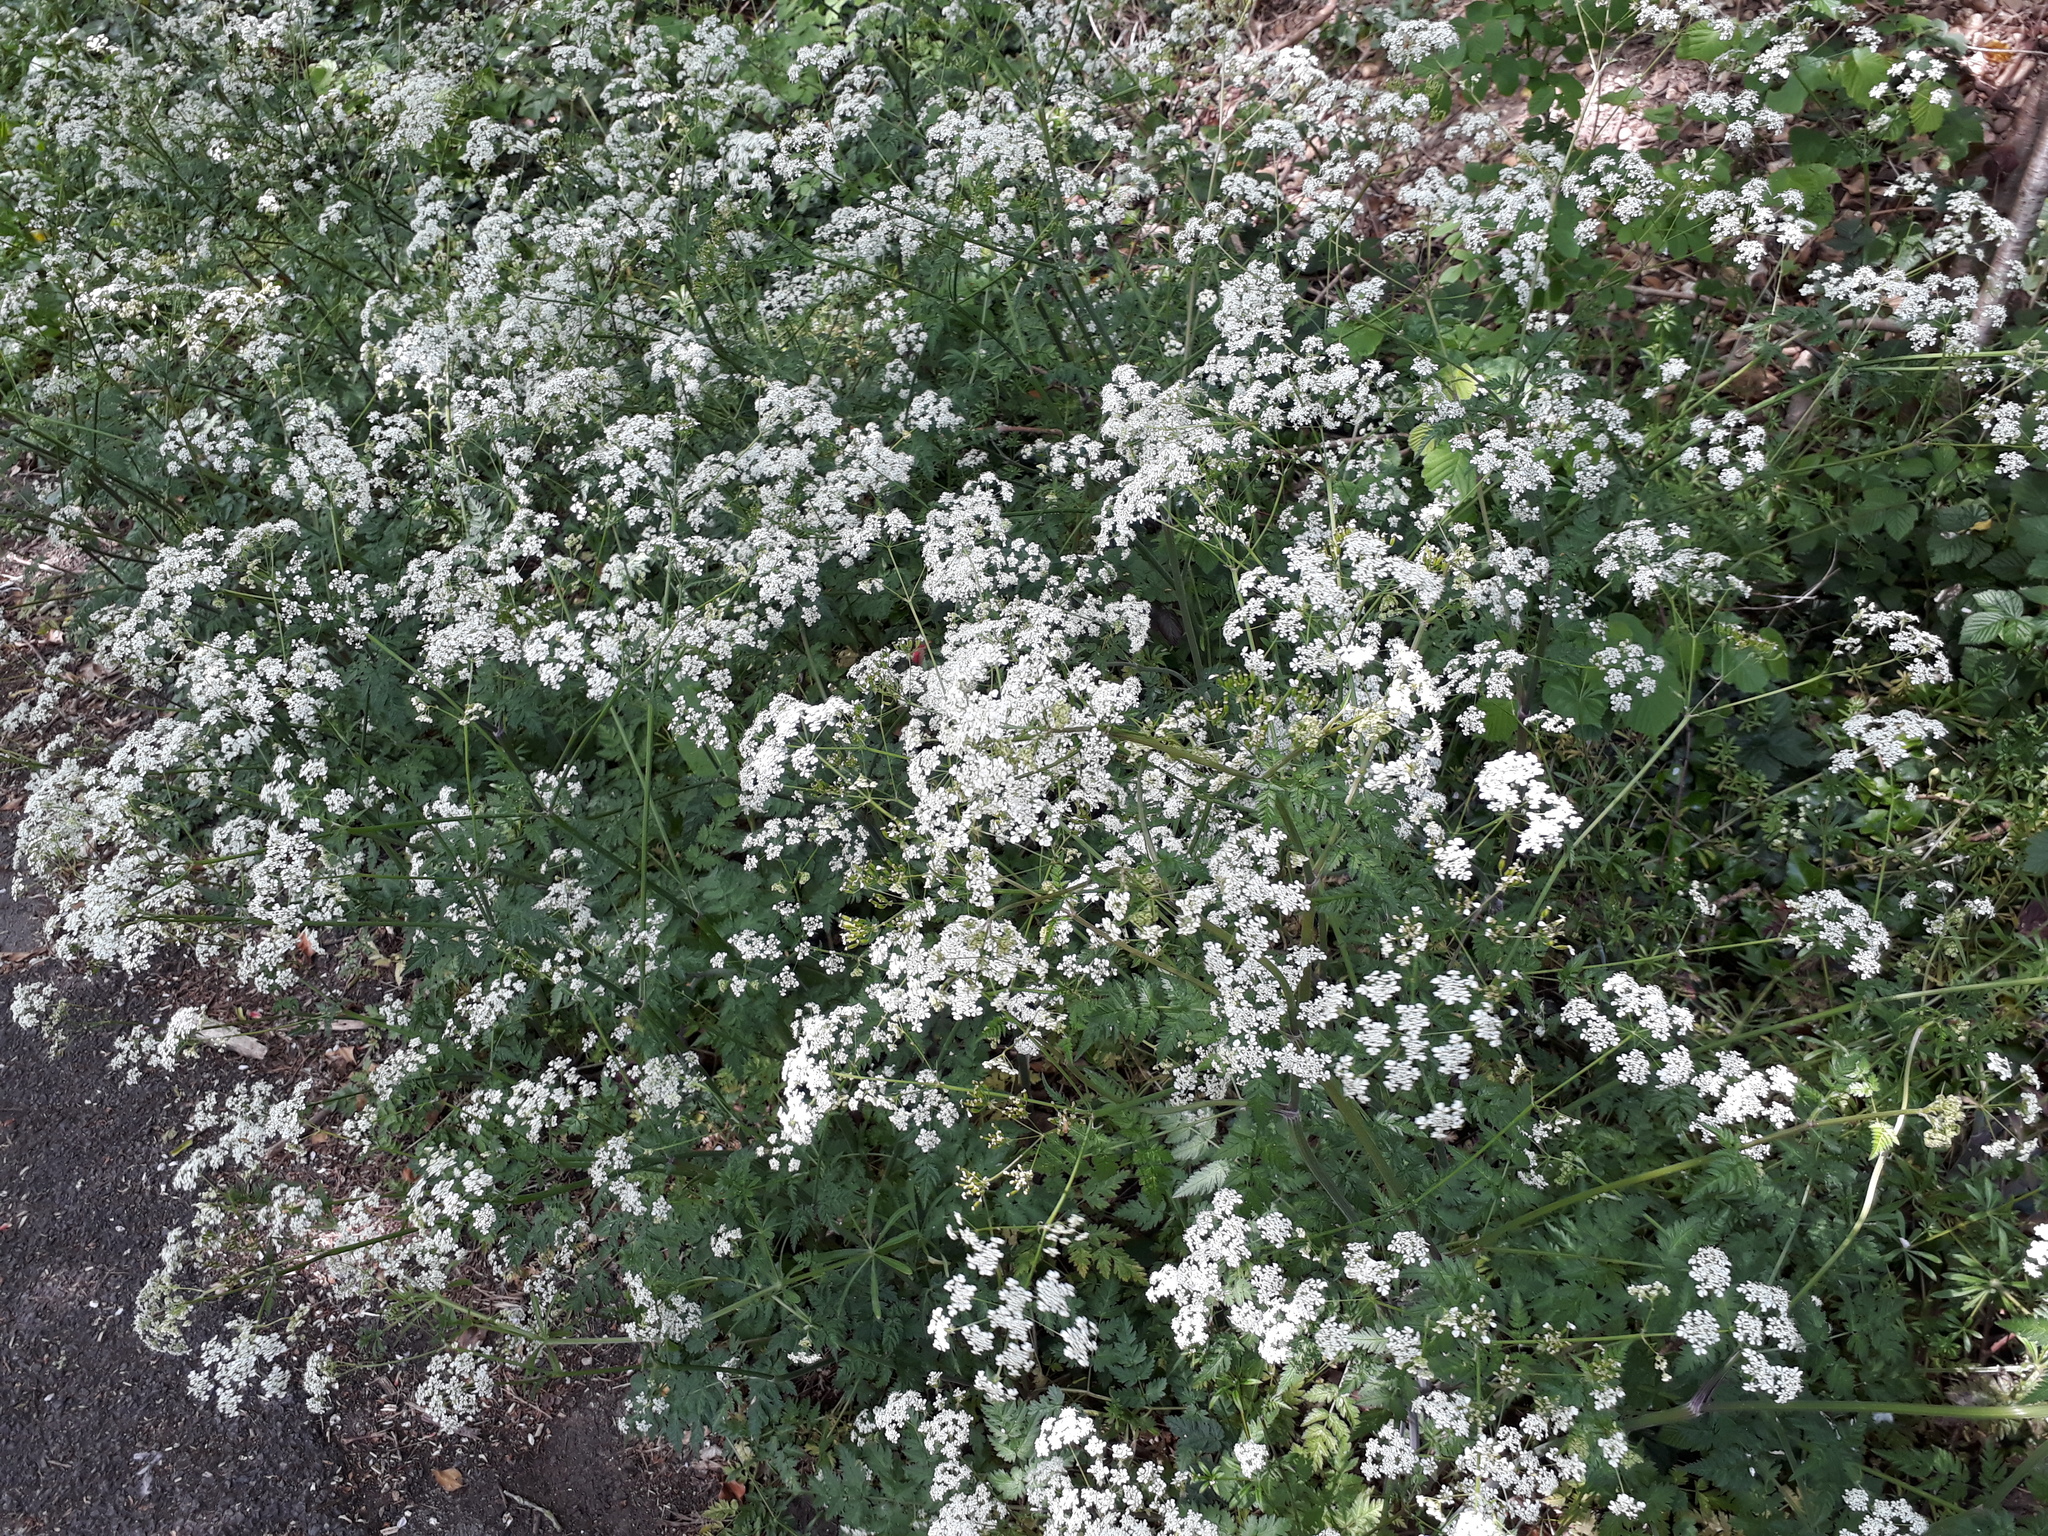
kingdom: Plantae
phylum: Tracheophyta
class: Magnoliopsida
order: Apiales
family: Apiaceae
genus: Anthriscus
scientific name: Anthriscus sylvestris
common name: Cow parsley
